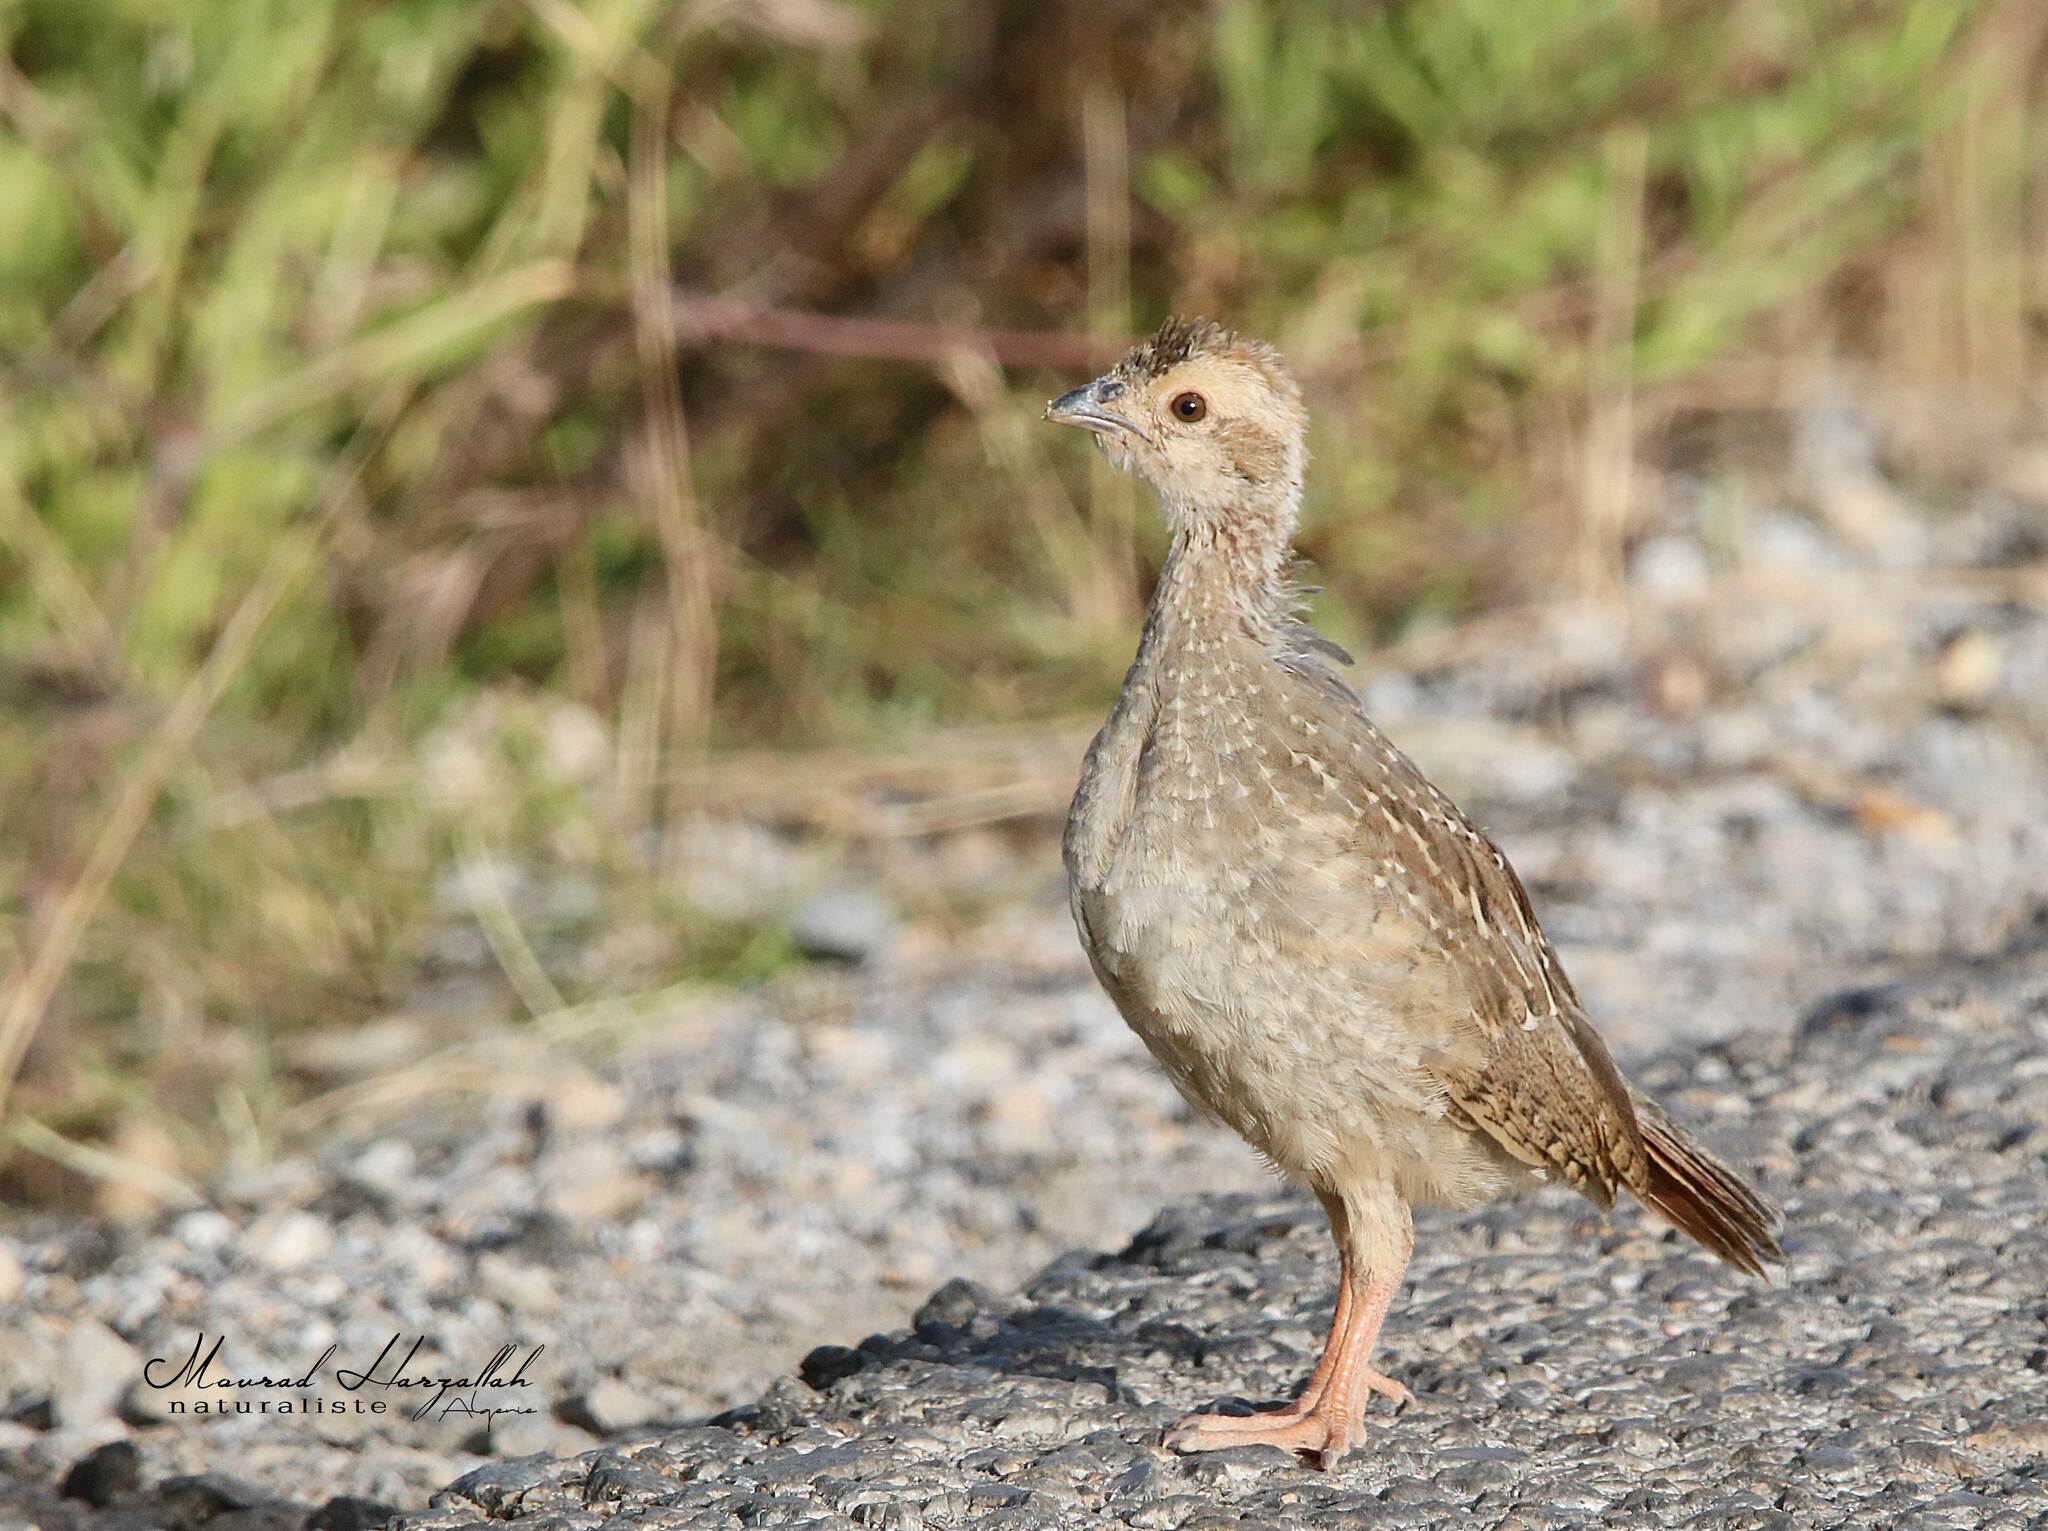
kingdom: Animalia
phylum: Chordata
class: Aves
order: Galliformes
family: Phasianidae
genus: Alectoris
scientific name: Alectoris barbara
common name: Barbary partridge
